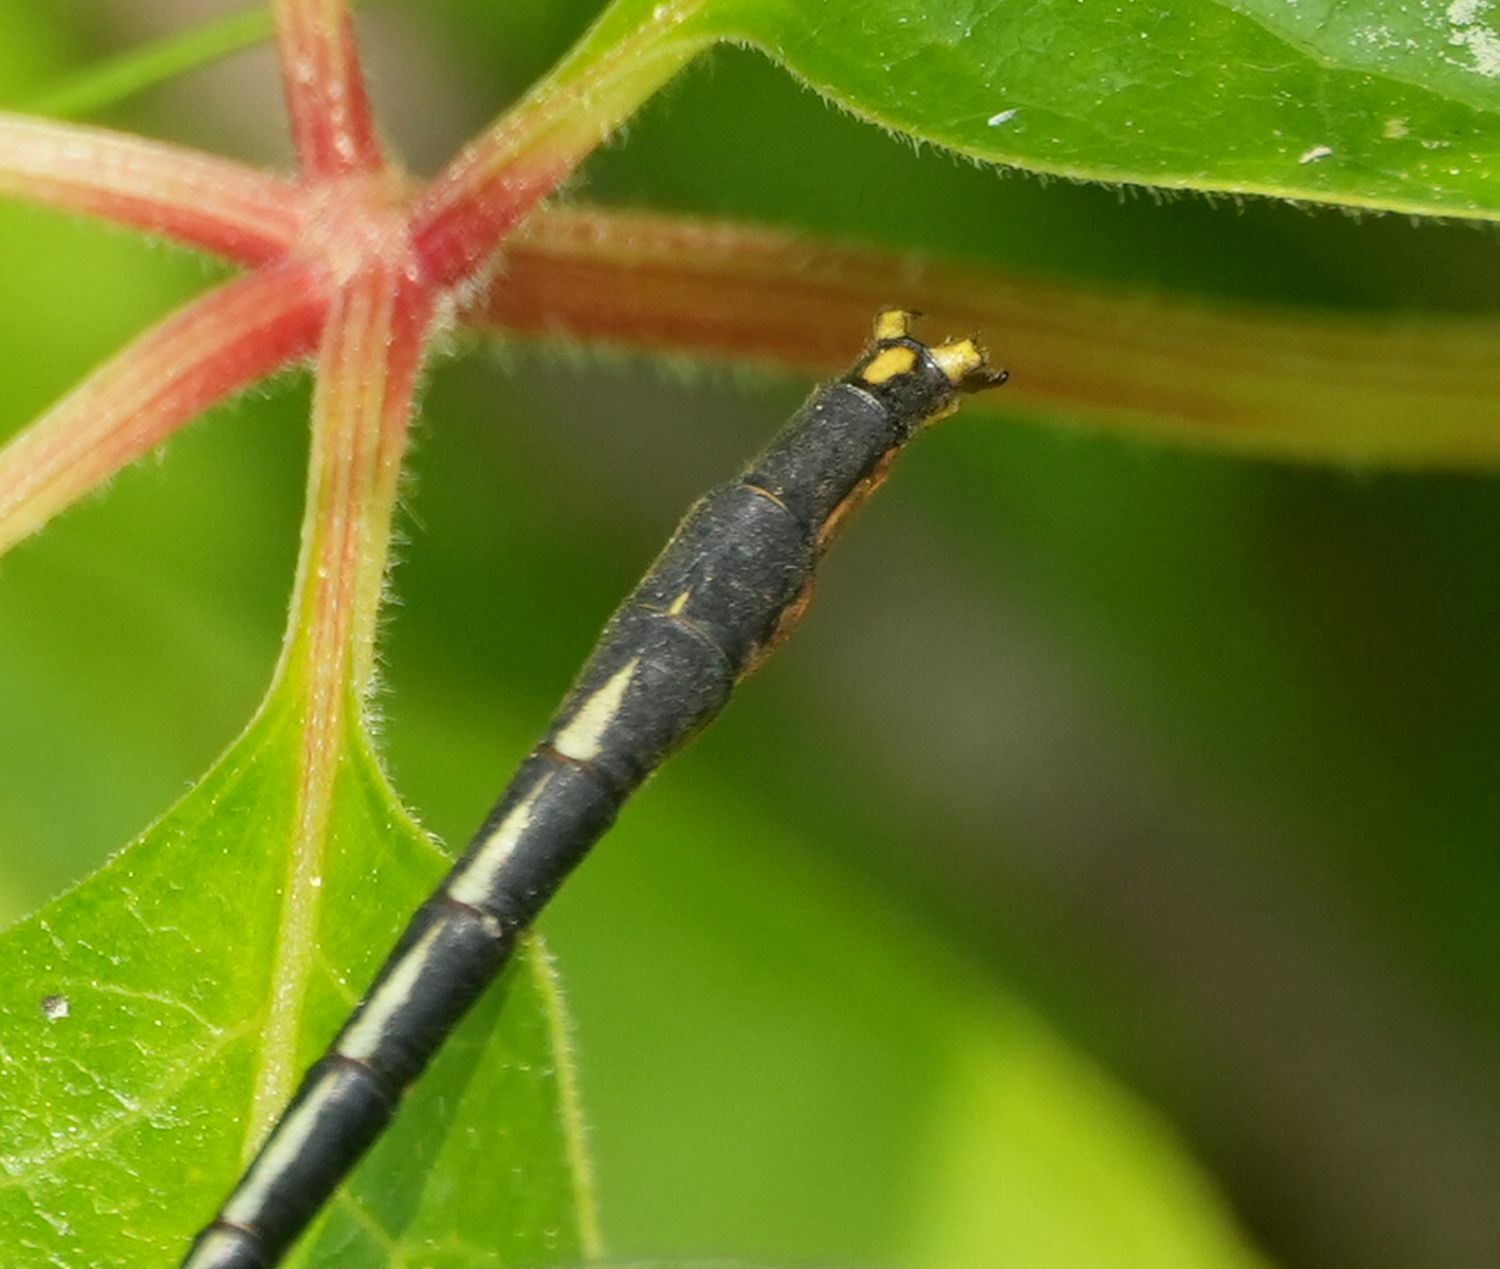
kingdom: Animalia
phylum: Arthropoda
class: Insecta
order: Odonata
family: Gomphidae
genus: Arigomphus
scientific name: Arigomphus furcifer
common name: Lilypad clubtail
